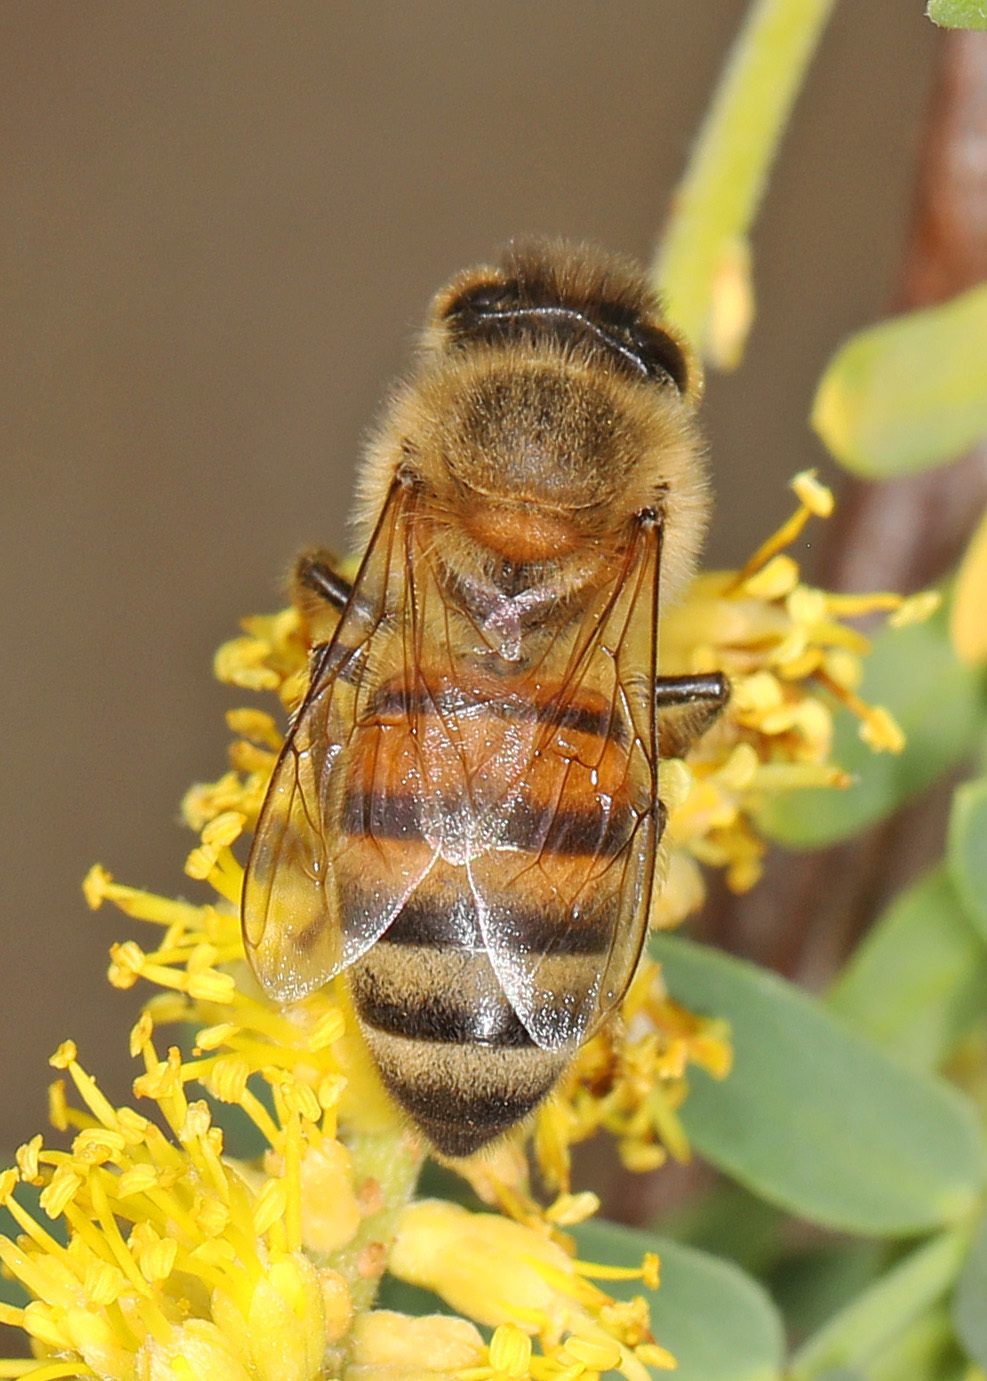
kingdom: Animalia
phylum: Arthropoda
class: Insecta
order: Hymenoptera
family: Apidae
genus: Apis
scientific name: Apis mellifera
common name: Honey bee
